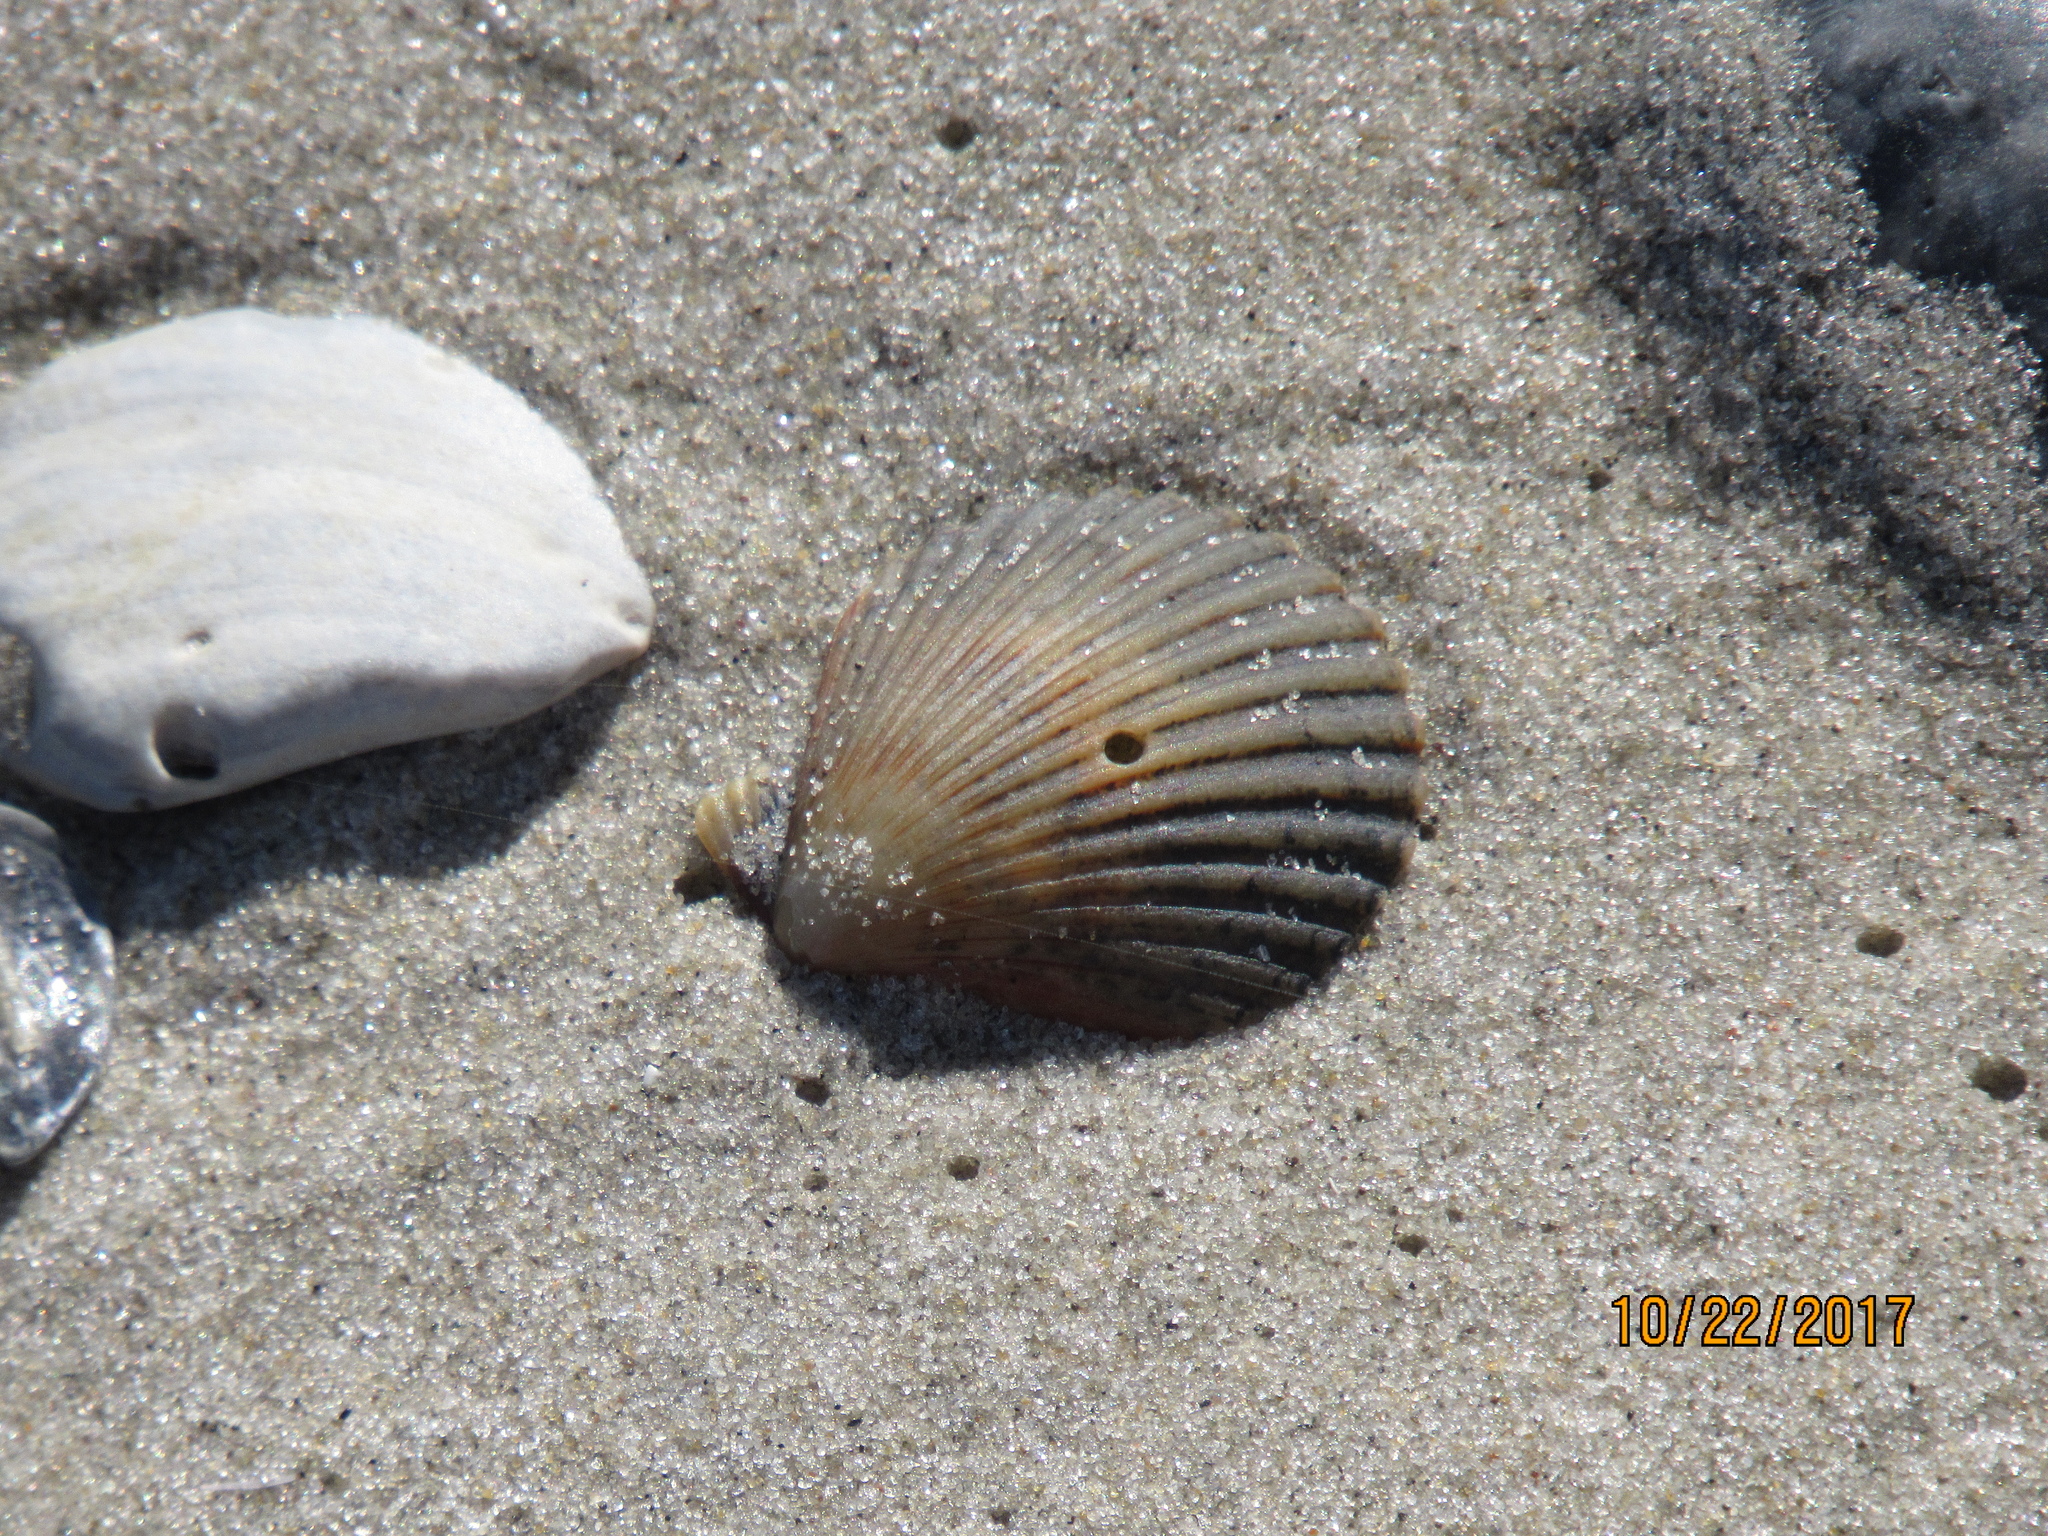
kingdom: Animalia
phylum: Mollusca
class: Bivalvia
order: Pectinida
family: Pectinidae
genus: Argopecten
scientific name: Argopecten irradians
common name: Atlantic bay scallop
